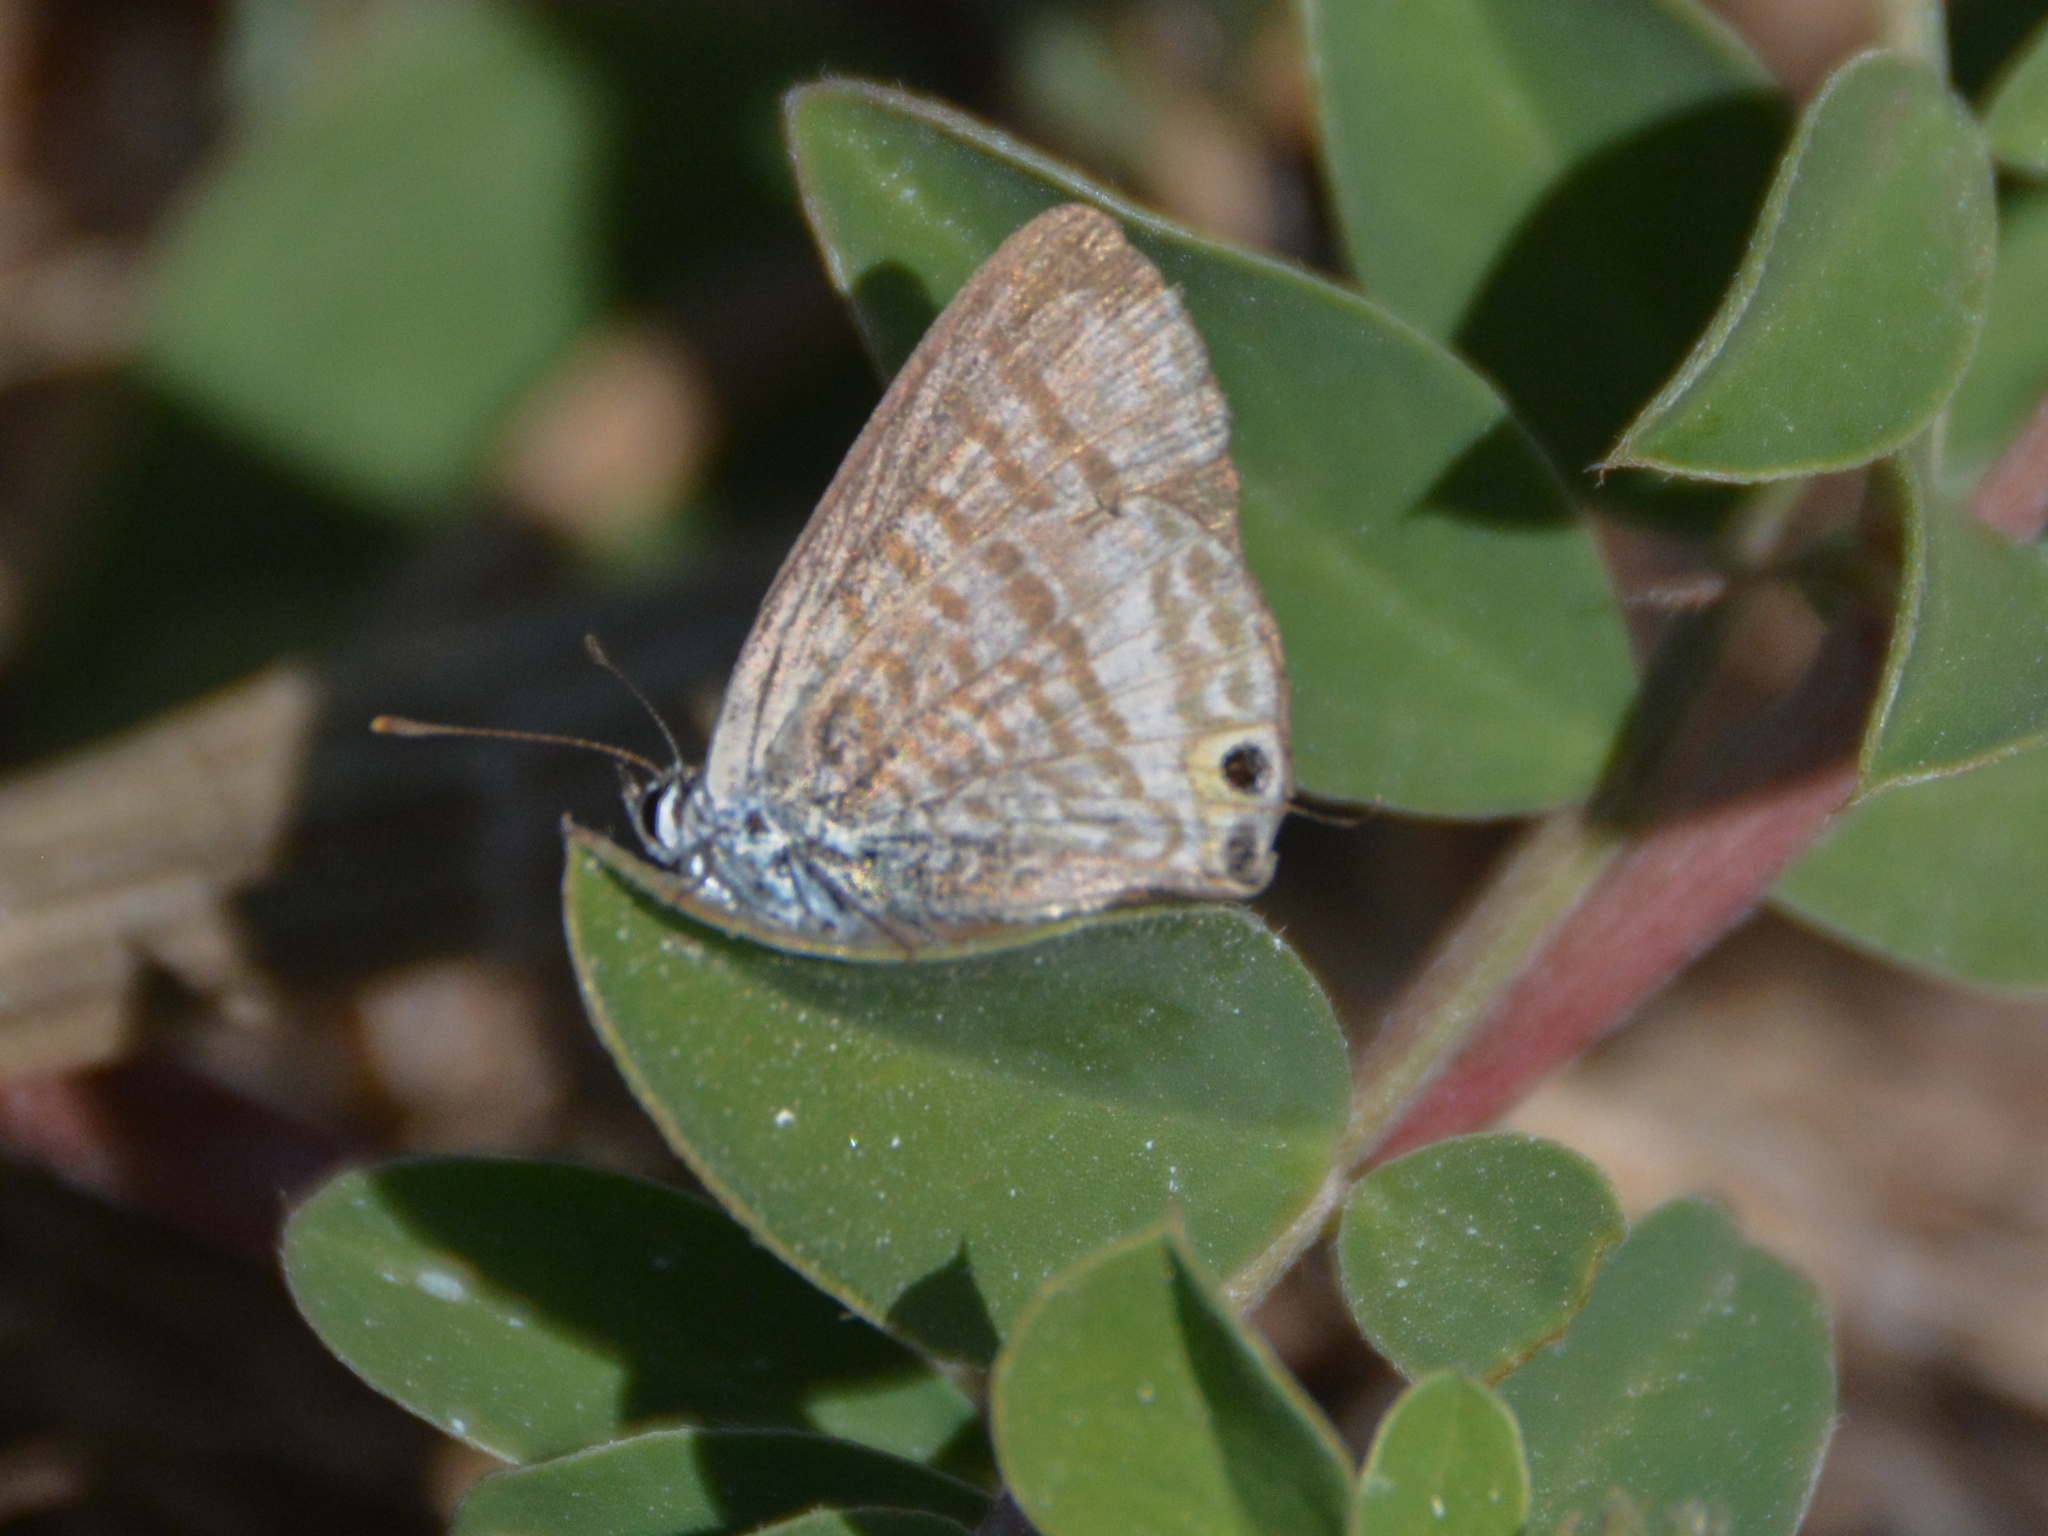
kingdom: Animalia
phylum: Arthropoda
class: Insecta
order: Lepidoptera
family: Lycaenidae
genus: Lampides
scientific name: Lampides boeticus
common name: Long-tailed blue
